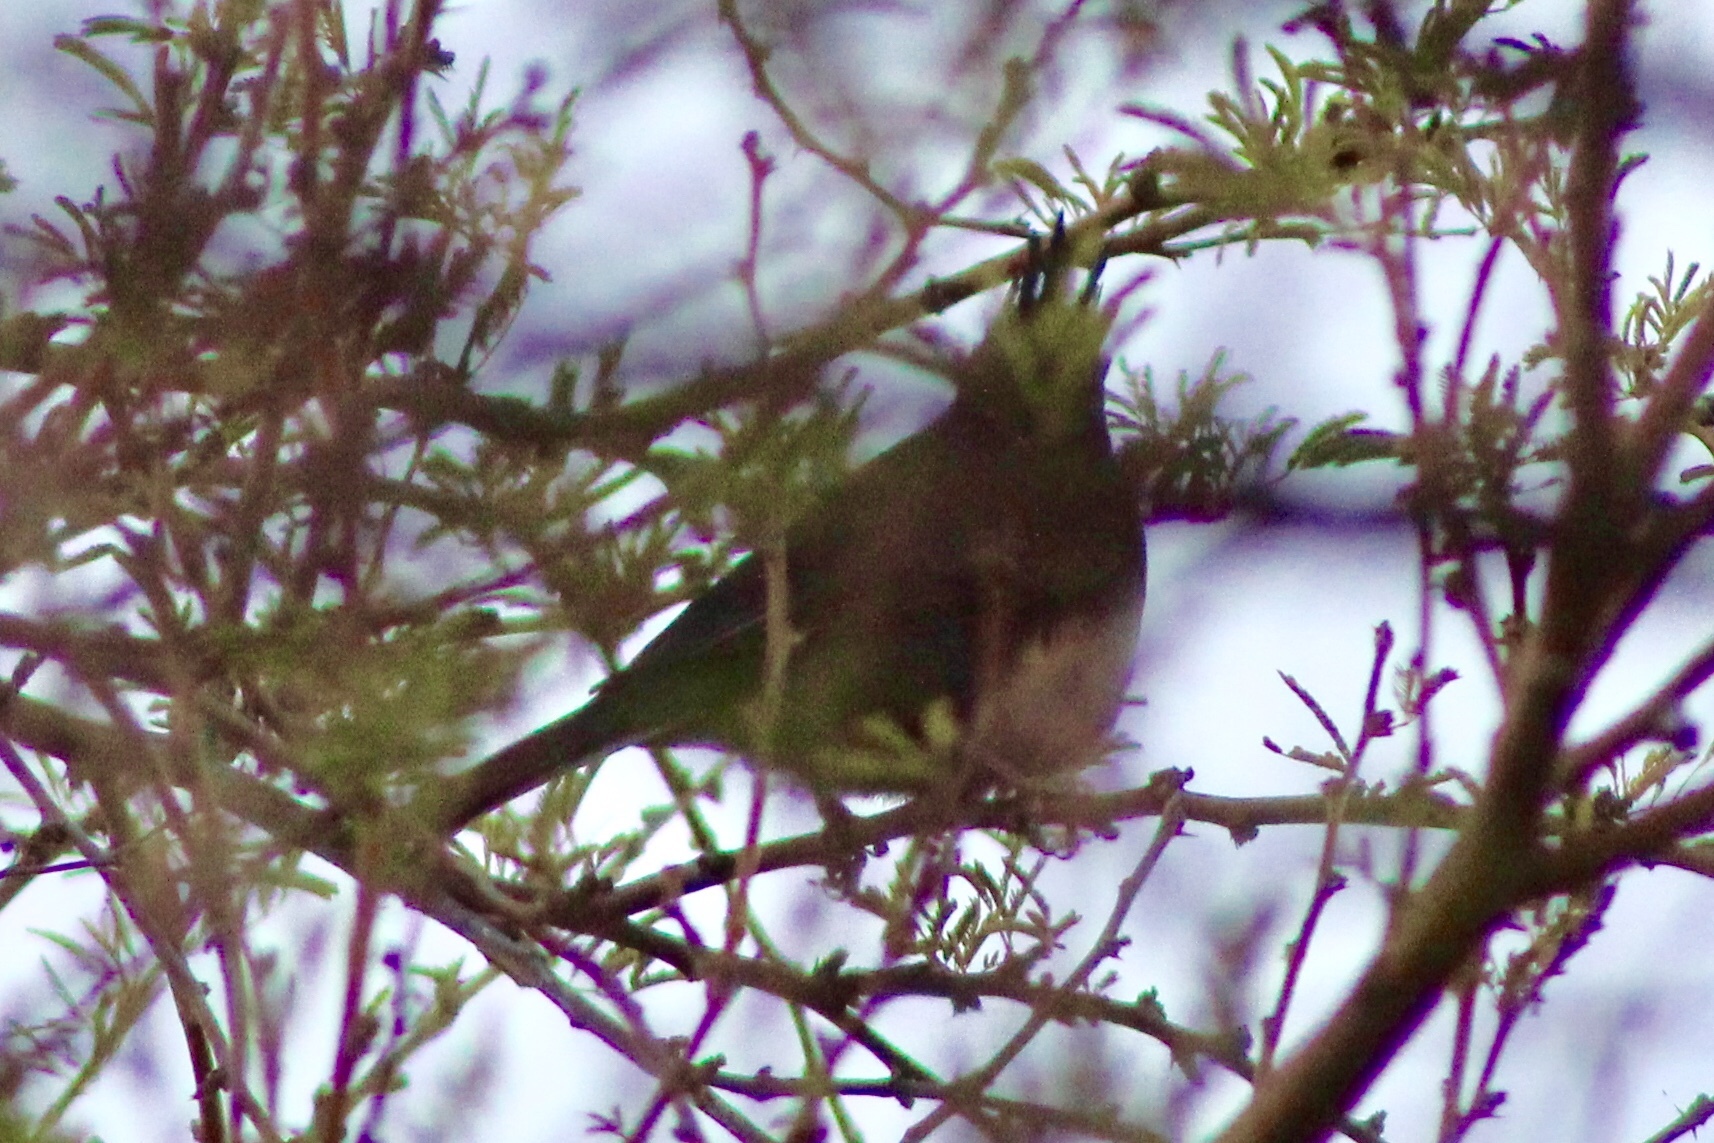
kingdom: Animalia
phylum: Chordata
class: Aves
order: Passeriformes
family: Ptilogonatidae
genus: Phainopepla
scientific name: Phainopepla nitens
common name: Phainopepla
